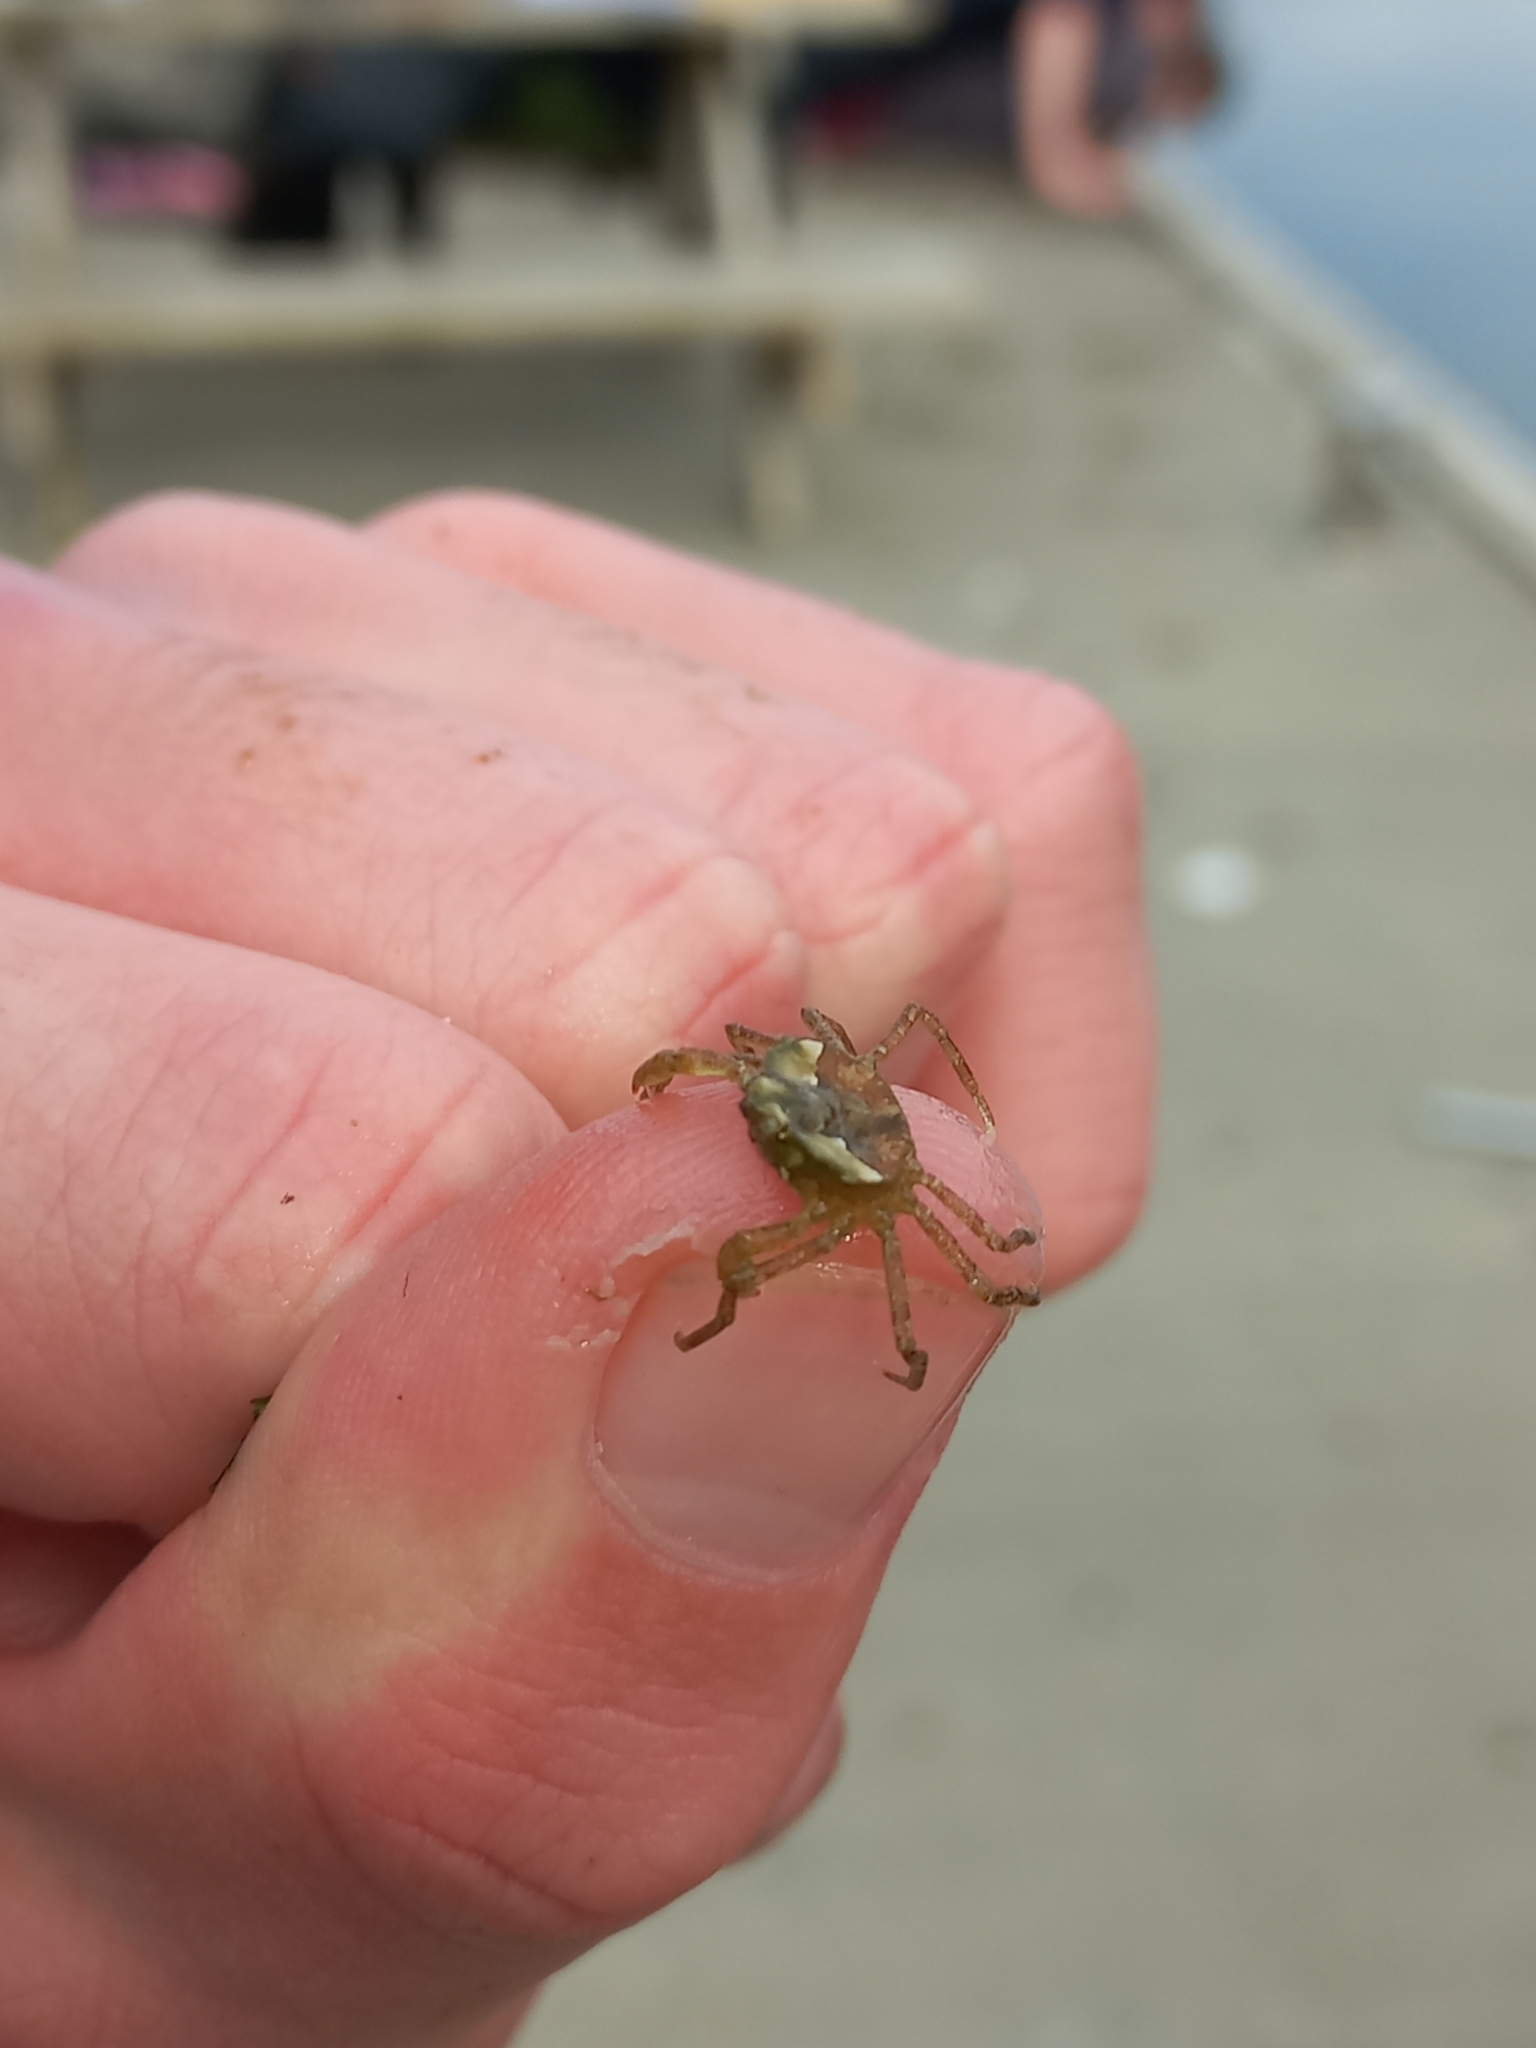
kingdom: Animalia
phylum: Arthropoda
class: Malacostraca
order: Decapoda
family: Hymenosomatidae
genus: Halicarcinus
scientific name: Halicarcinus cookii
